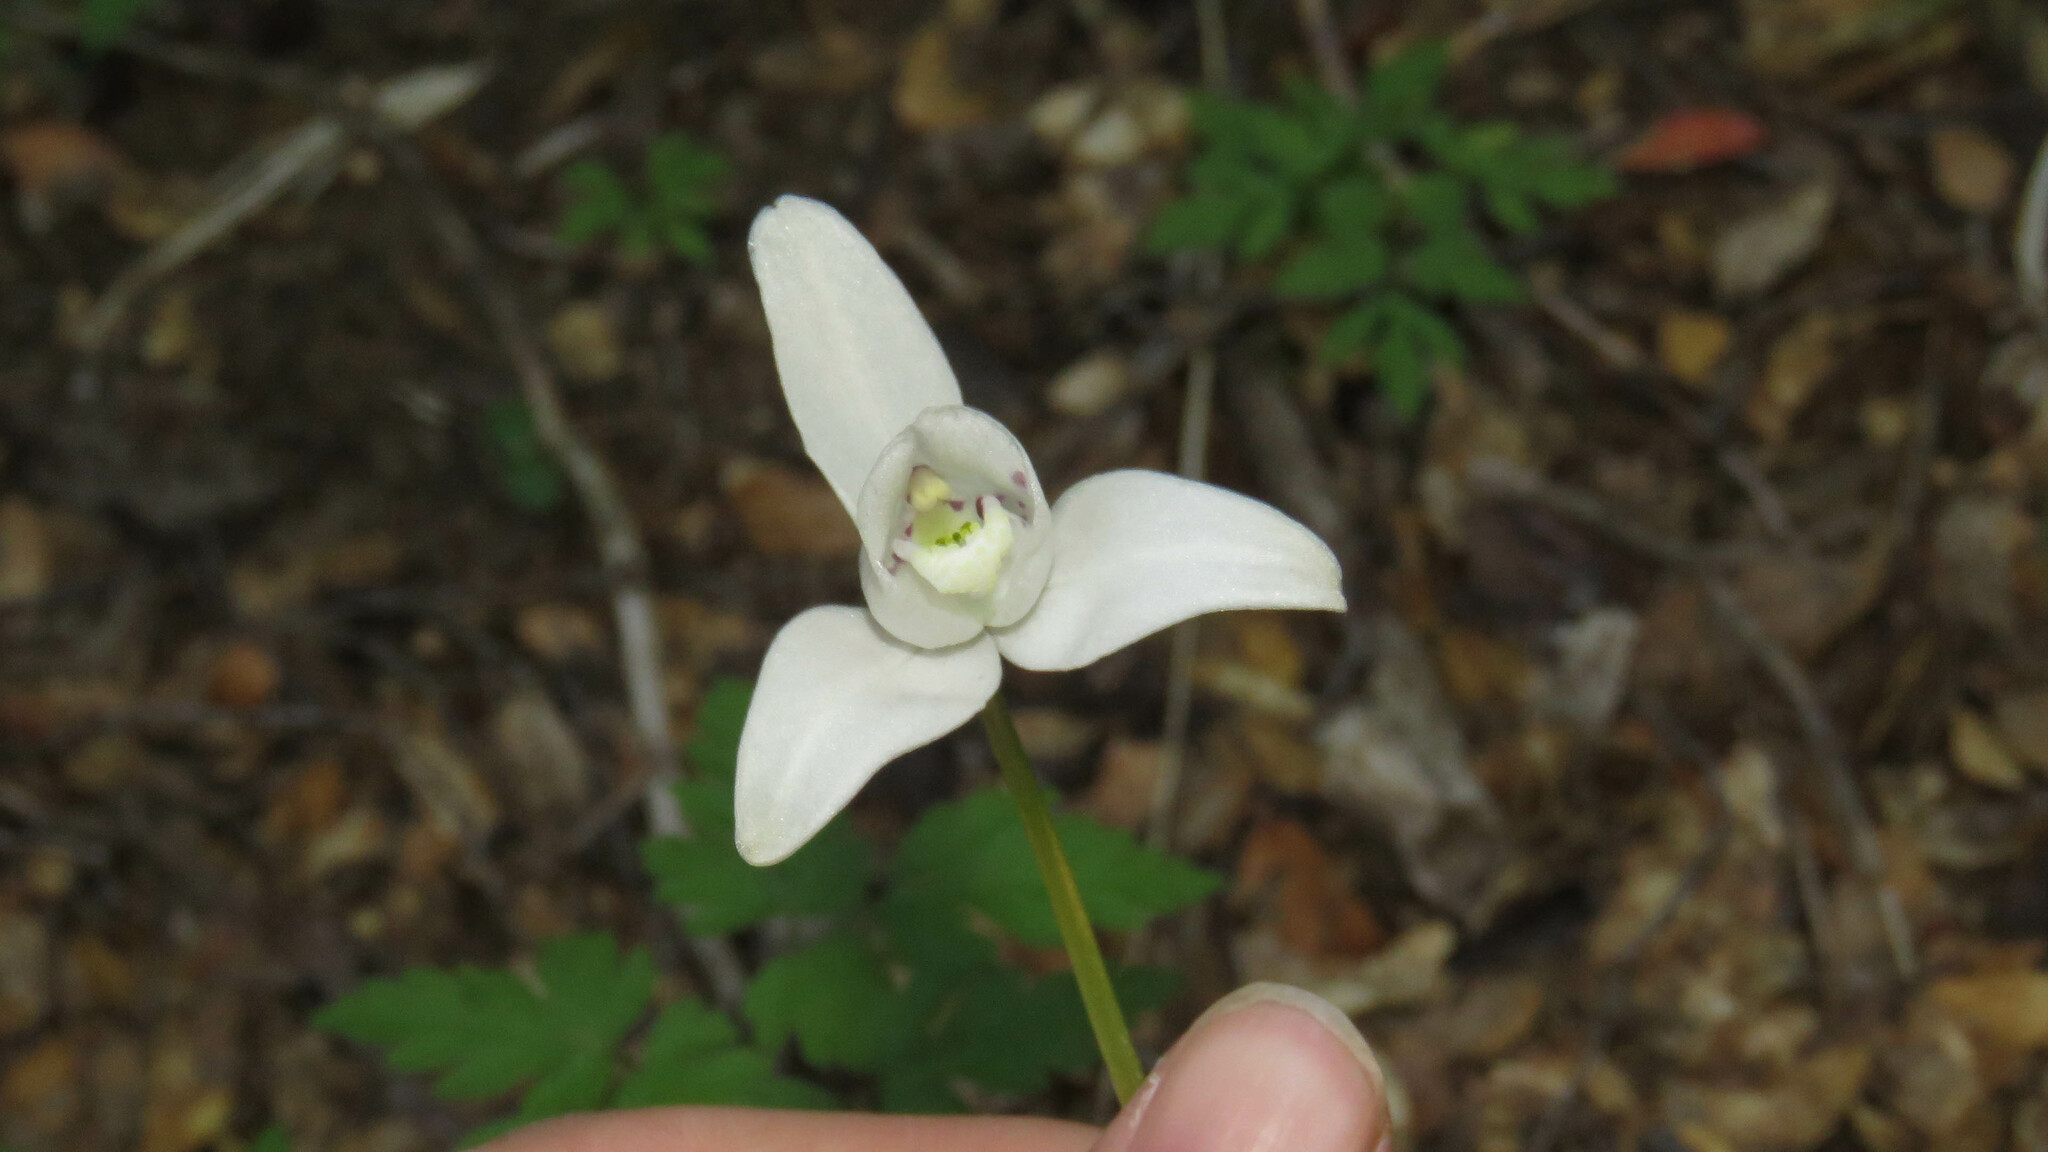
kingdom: Plantae
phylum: Tracheophyta
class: Liliopsida
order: Asparagales
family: Orchidaceae
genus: Codonorchis
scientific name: Codonorchis lessonii
